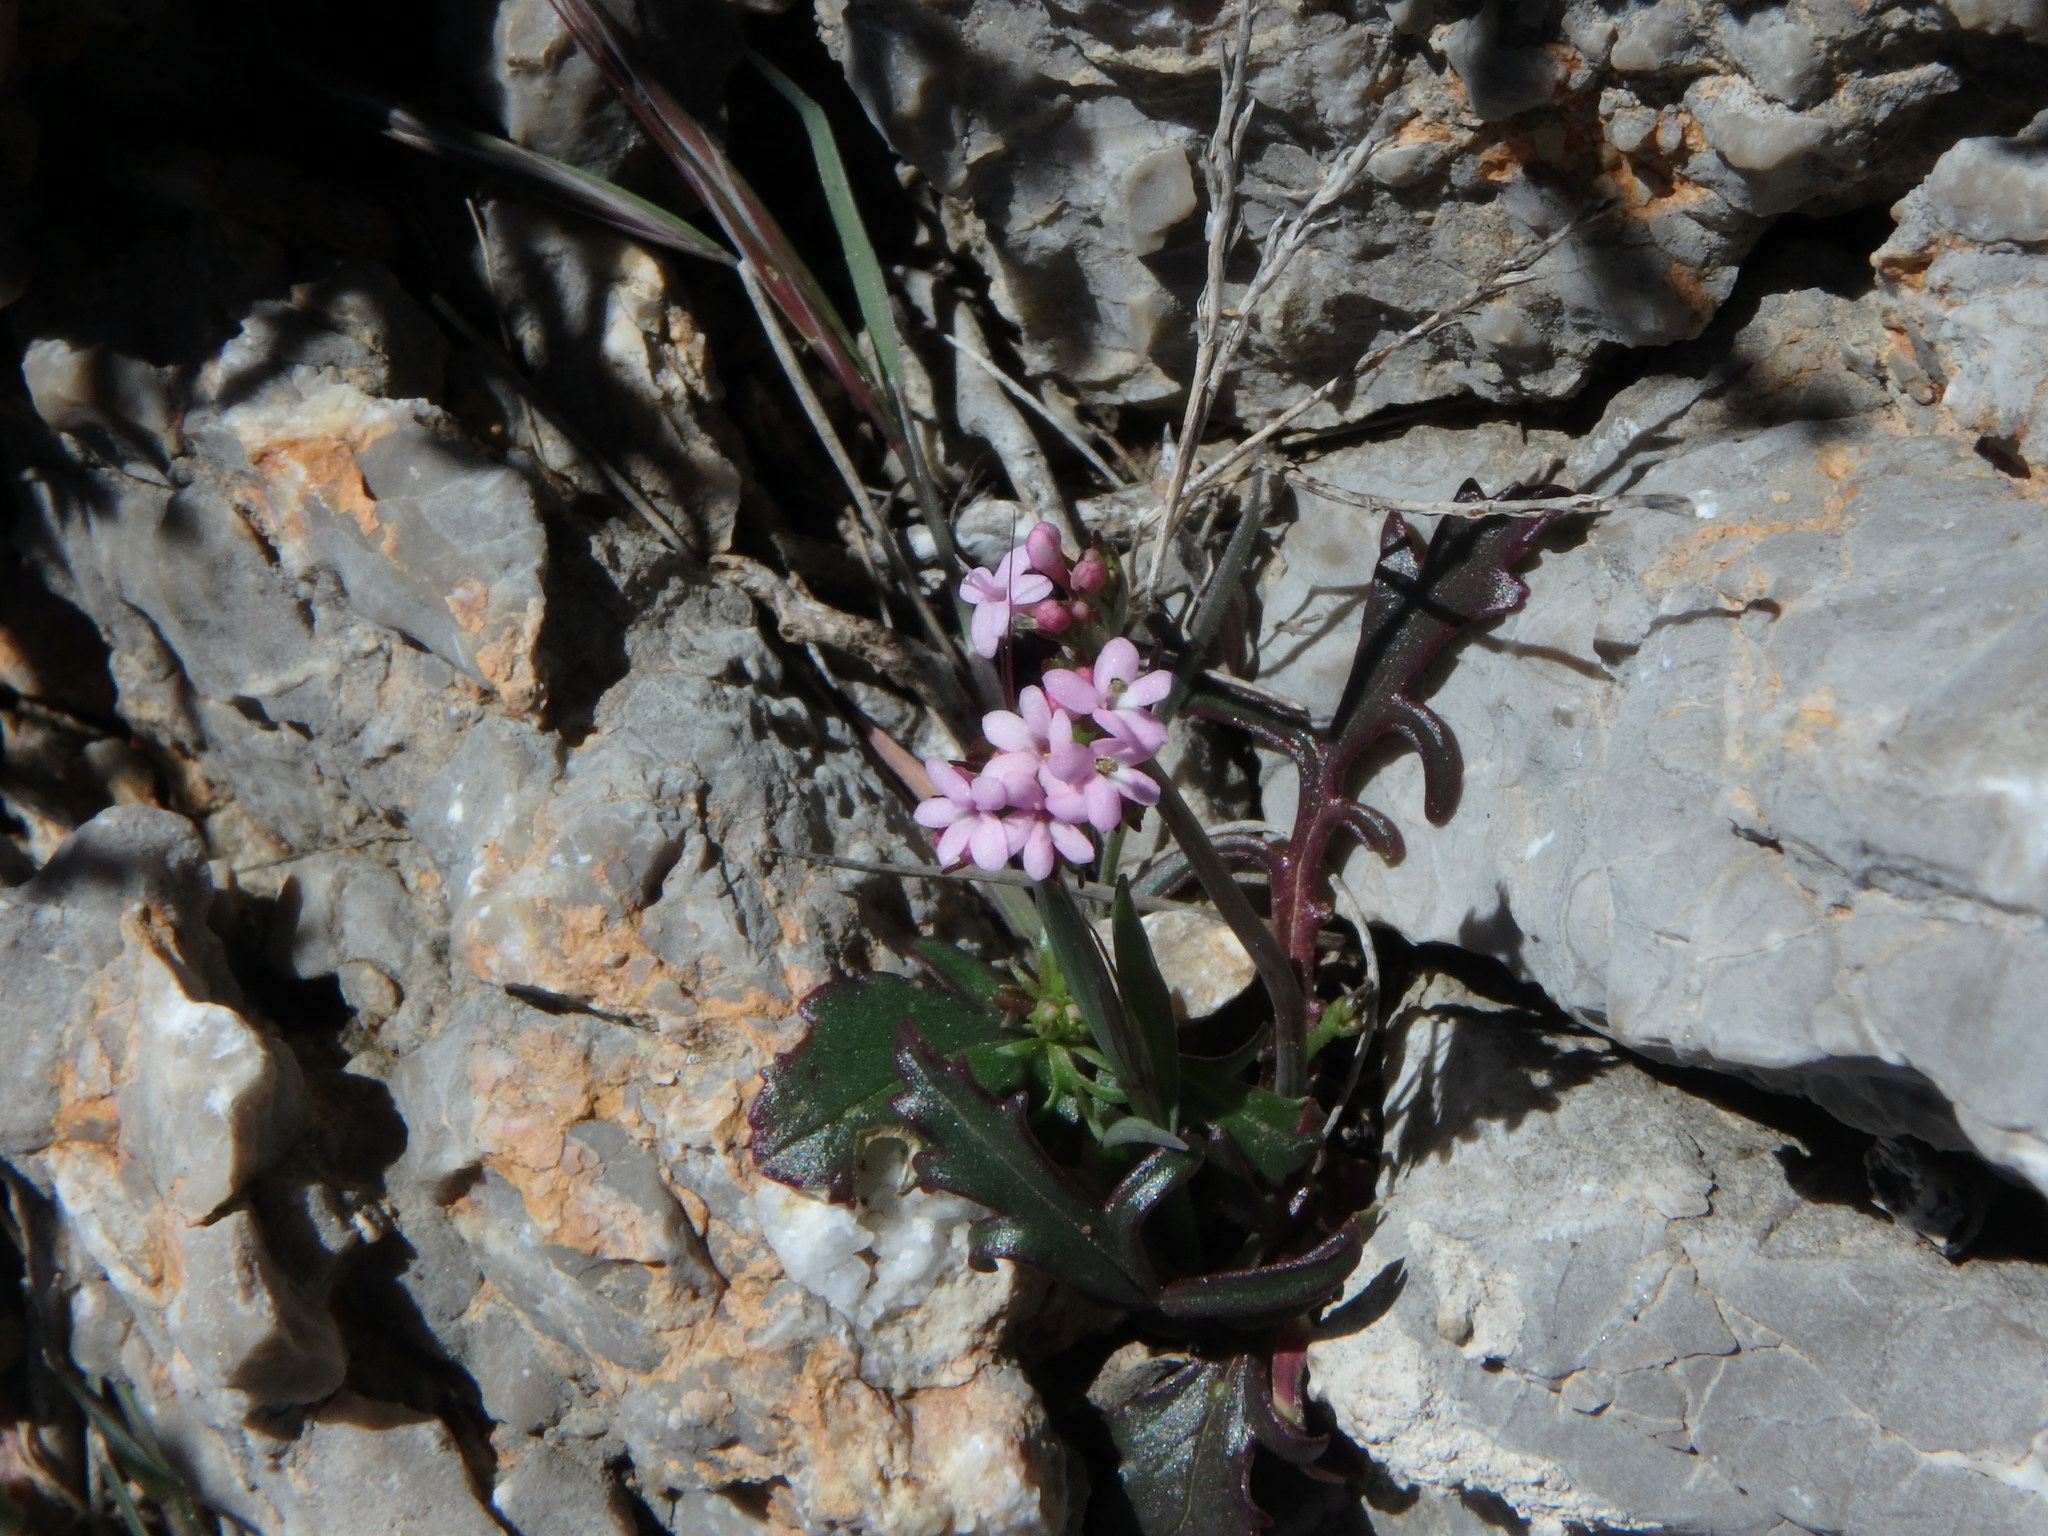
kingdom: Plantae
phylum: Tracheophyta
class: Magnoliopsida
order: Dipsacales
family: Caprifoliaceae
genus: Centranthus
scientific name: Centranthus calcitrapae
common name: Annual valerian
